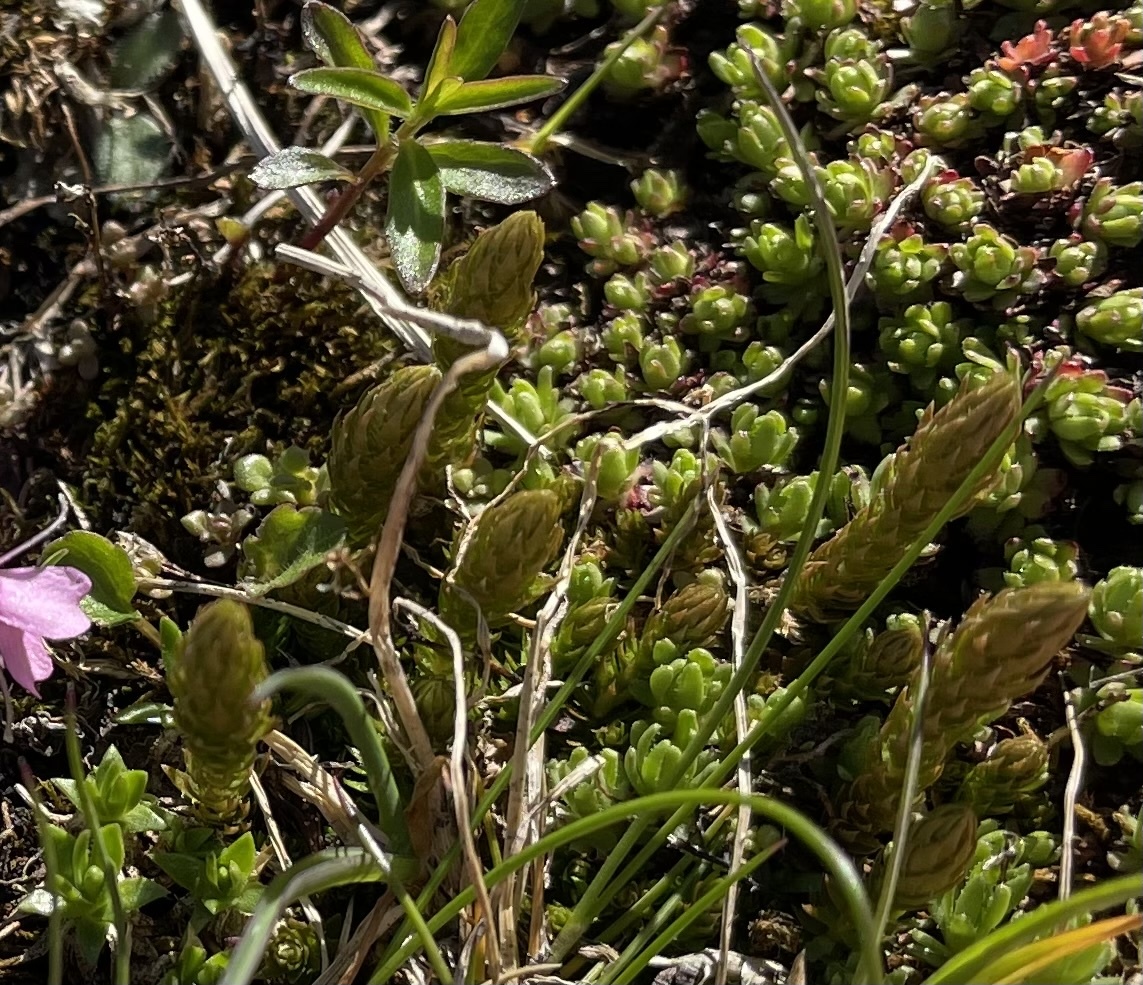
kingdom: Plantae
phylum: Tracheophyta
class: Lycopodiopsida
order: Selaginellales
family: Selaginellaceae
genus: Selaginella
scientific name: Selaginella selaginoides
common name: Prickly mountain-moss
